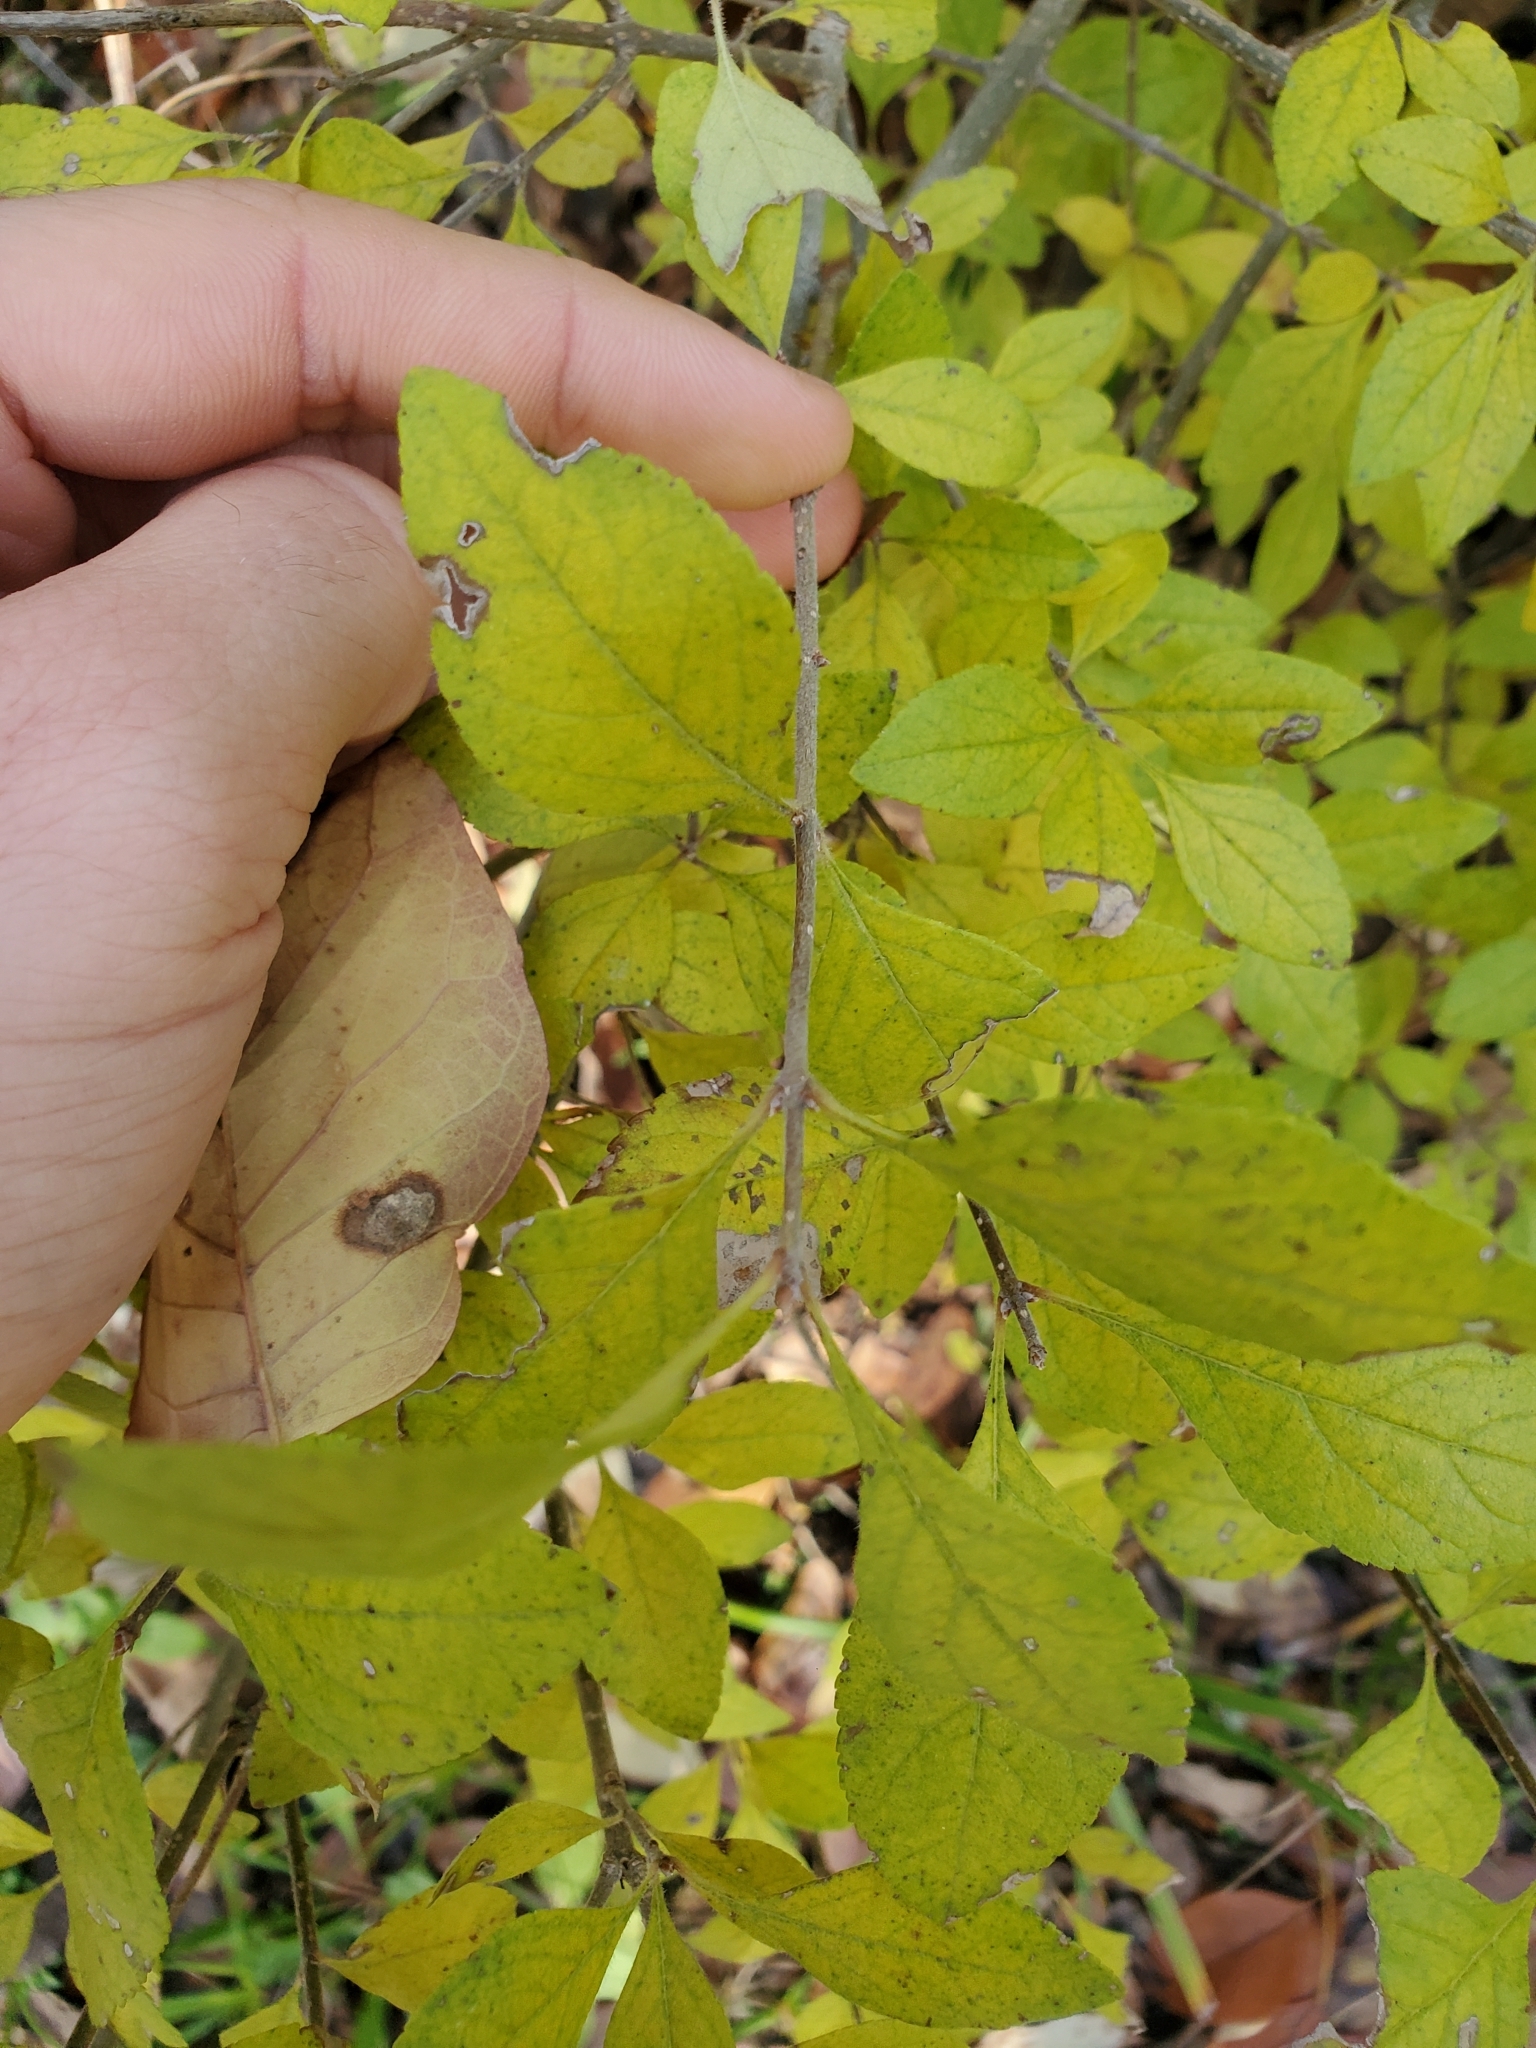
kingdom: Plantae
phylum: Tracheophyta
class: Magnoliopsida
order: Lamiales
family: Oleaceae
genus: Forestiera
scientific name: Forestiera pubescens
